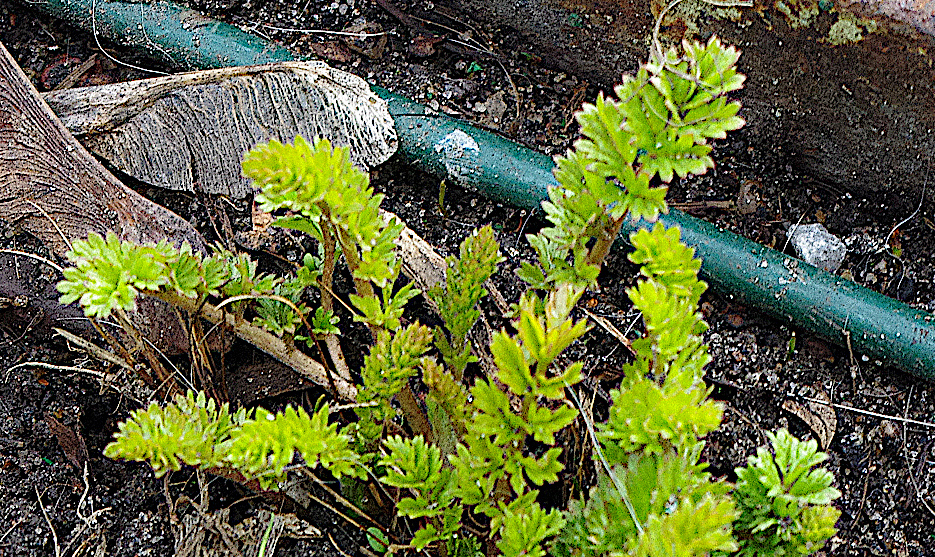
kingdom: Plantae
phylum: Tracheophyta
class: Magnoliopsida
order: Rosales
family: Rosaceae
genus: Potentilla
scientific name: Potentilla supina
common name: Prostrate cinquefoil
